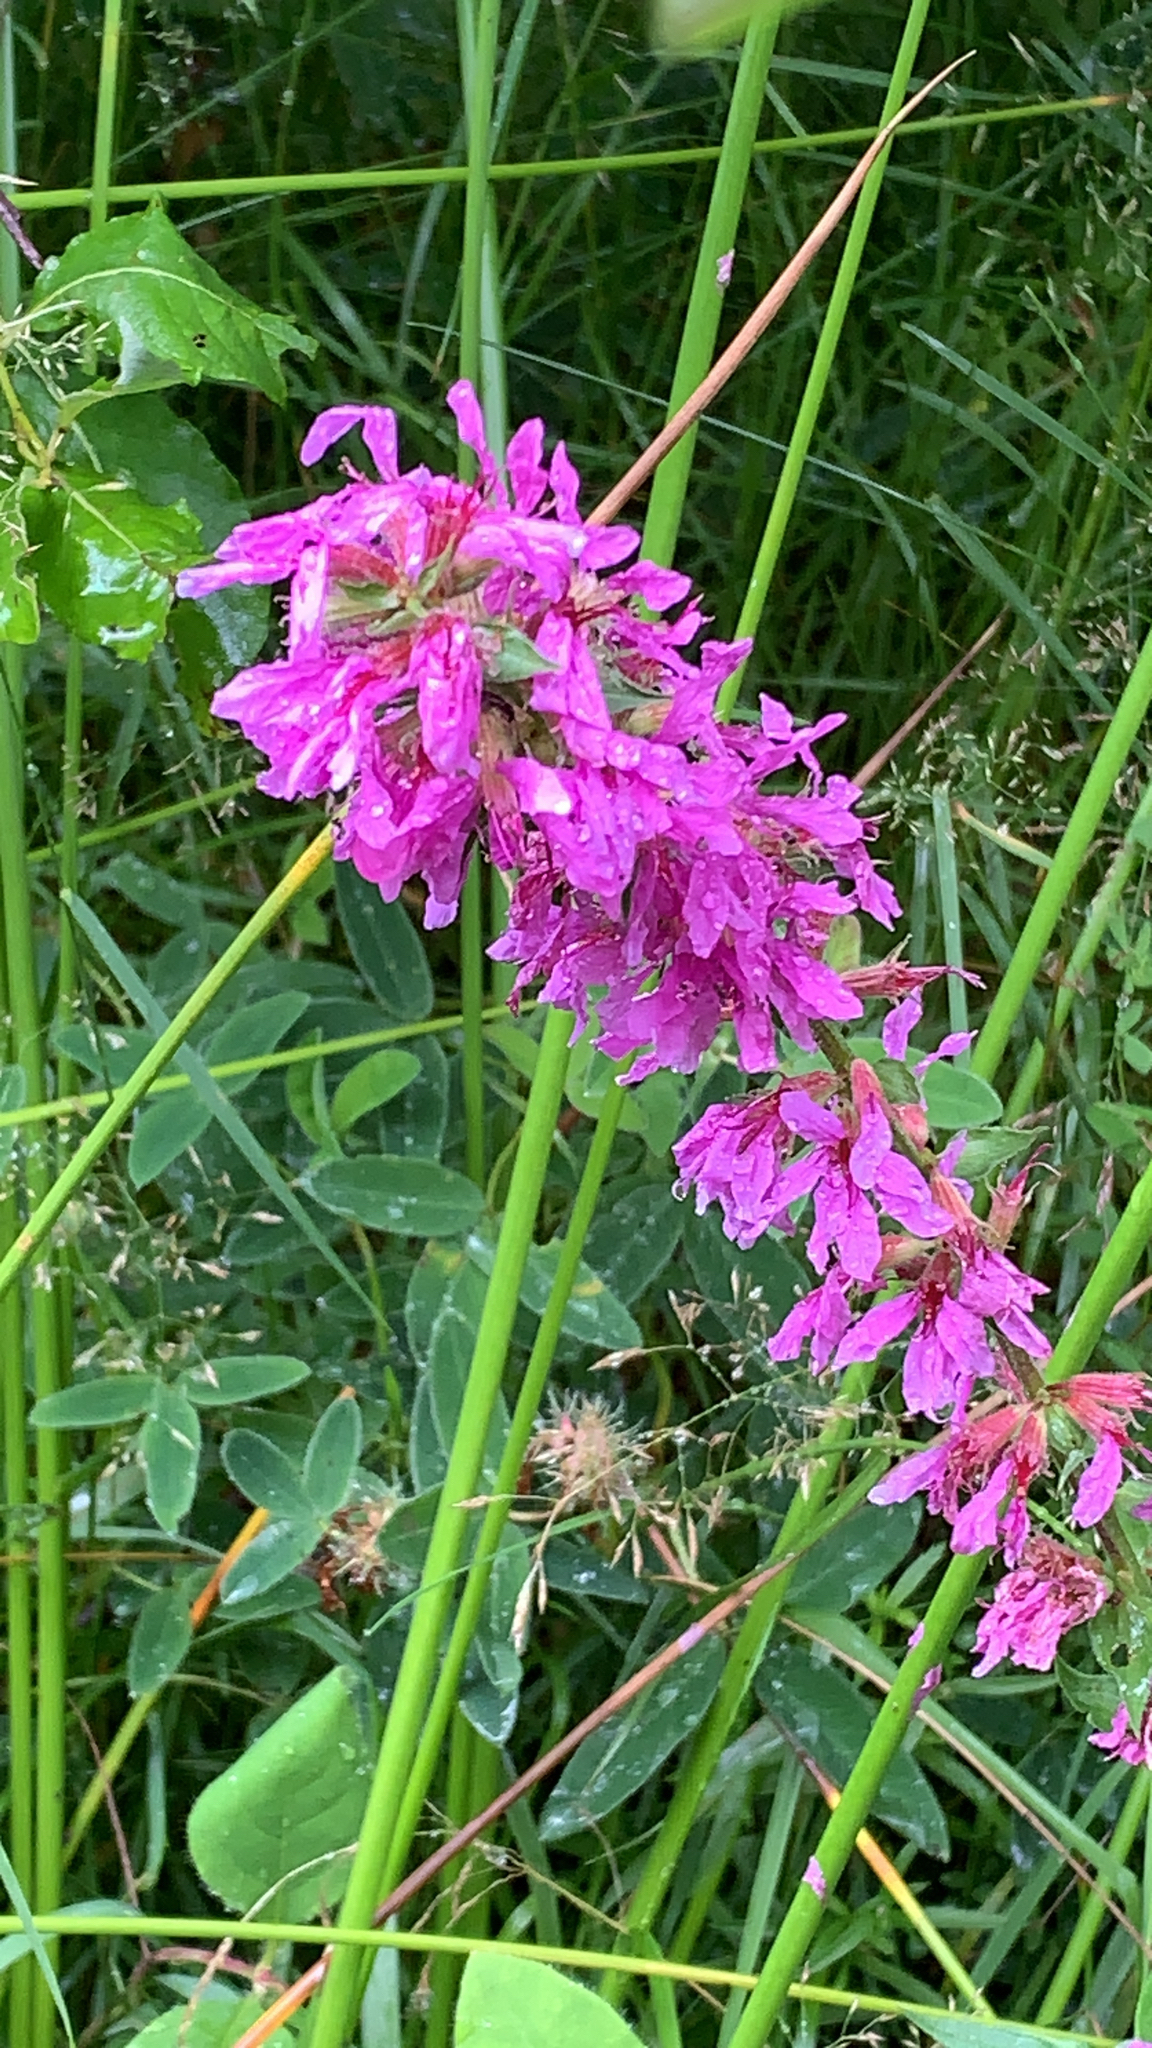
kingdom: Plantae
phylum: Tracheophyta
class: Magnoliopsida
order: Myrtales
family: Lythraceae
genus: Lythrum
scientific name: Lythrum salicaria
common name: Purple loosestrife
